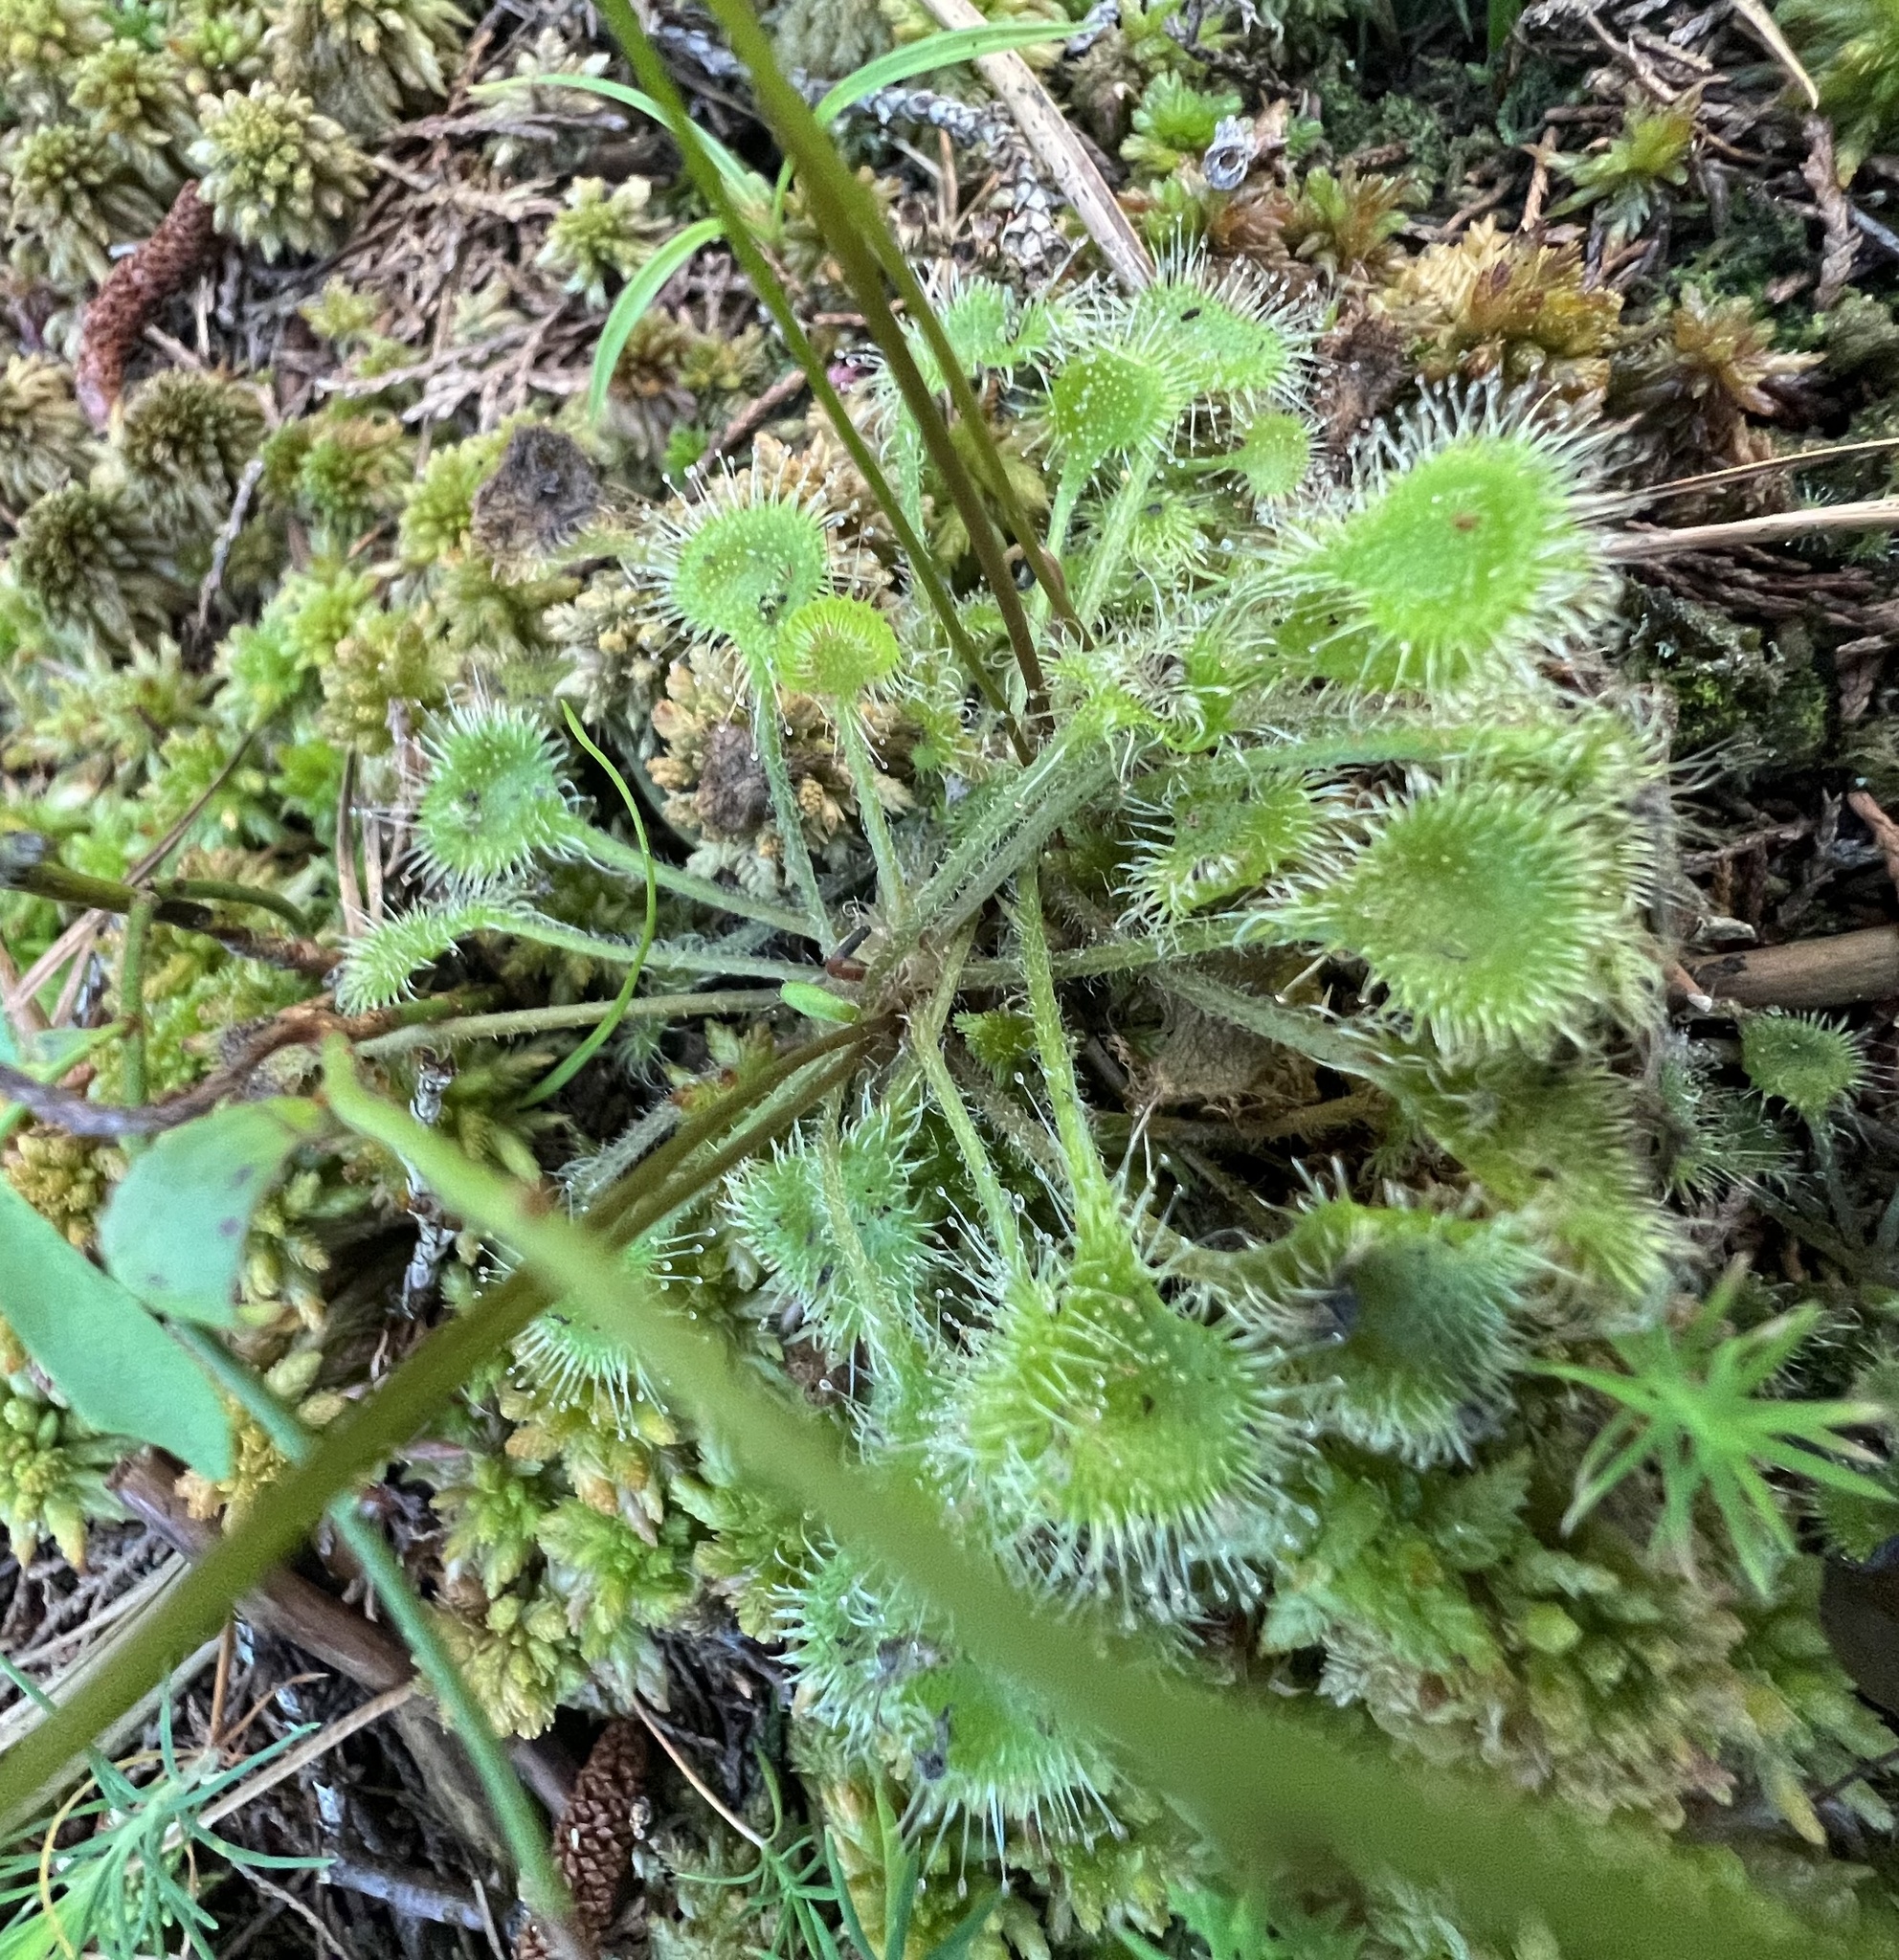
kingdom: Plantae
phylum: Tracheophyta
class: Magnoliopsida
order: Caryophyllales
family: Droseraceae
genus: Drosera
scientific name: Drosera rotundifolia
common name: Round-leaved sundew
